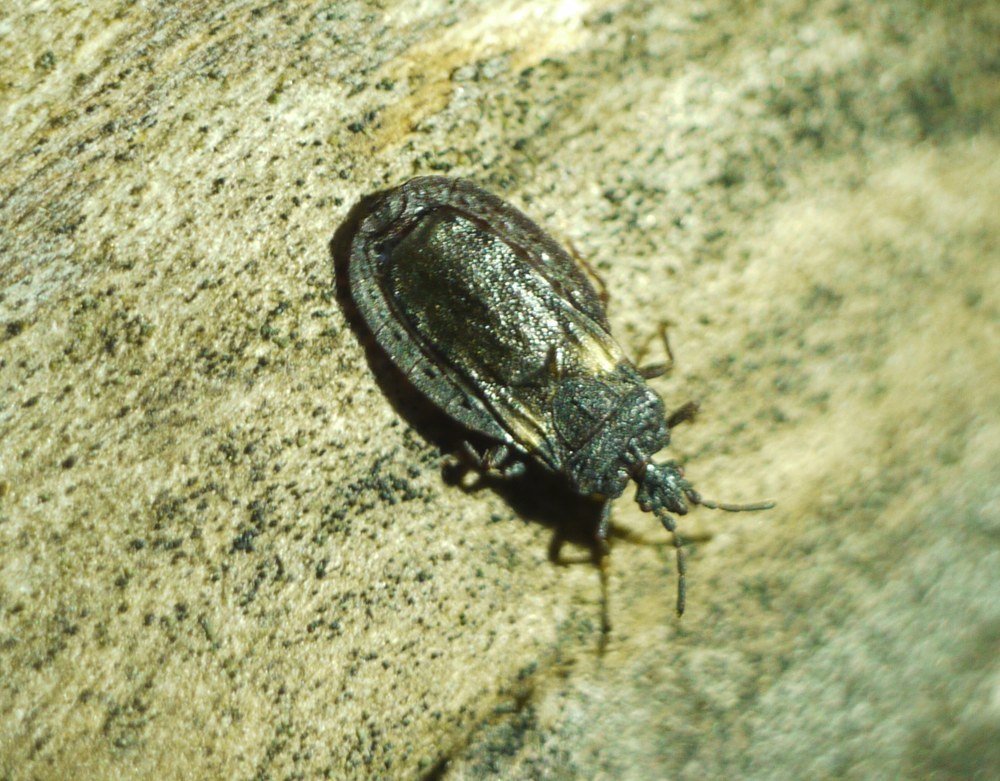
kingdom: Animalia
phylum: Arthropoda
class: Insecta
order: Hemiptera
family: Aradidae
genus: Aneurus
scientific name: Aneurus avenius
